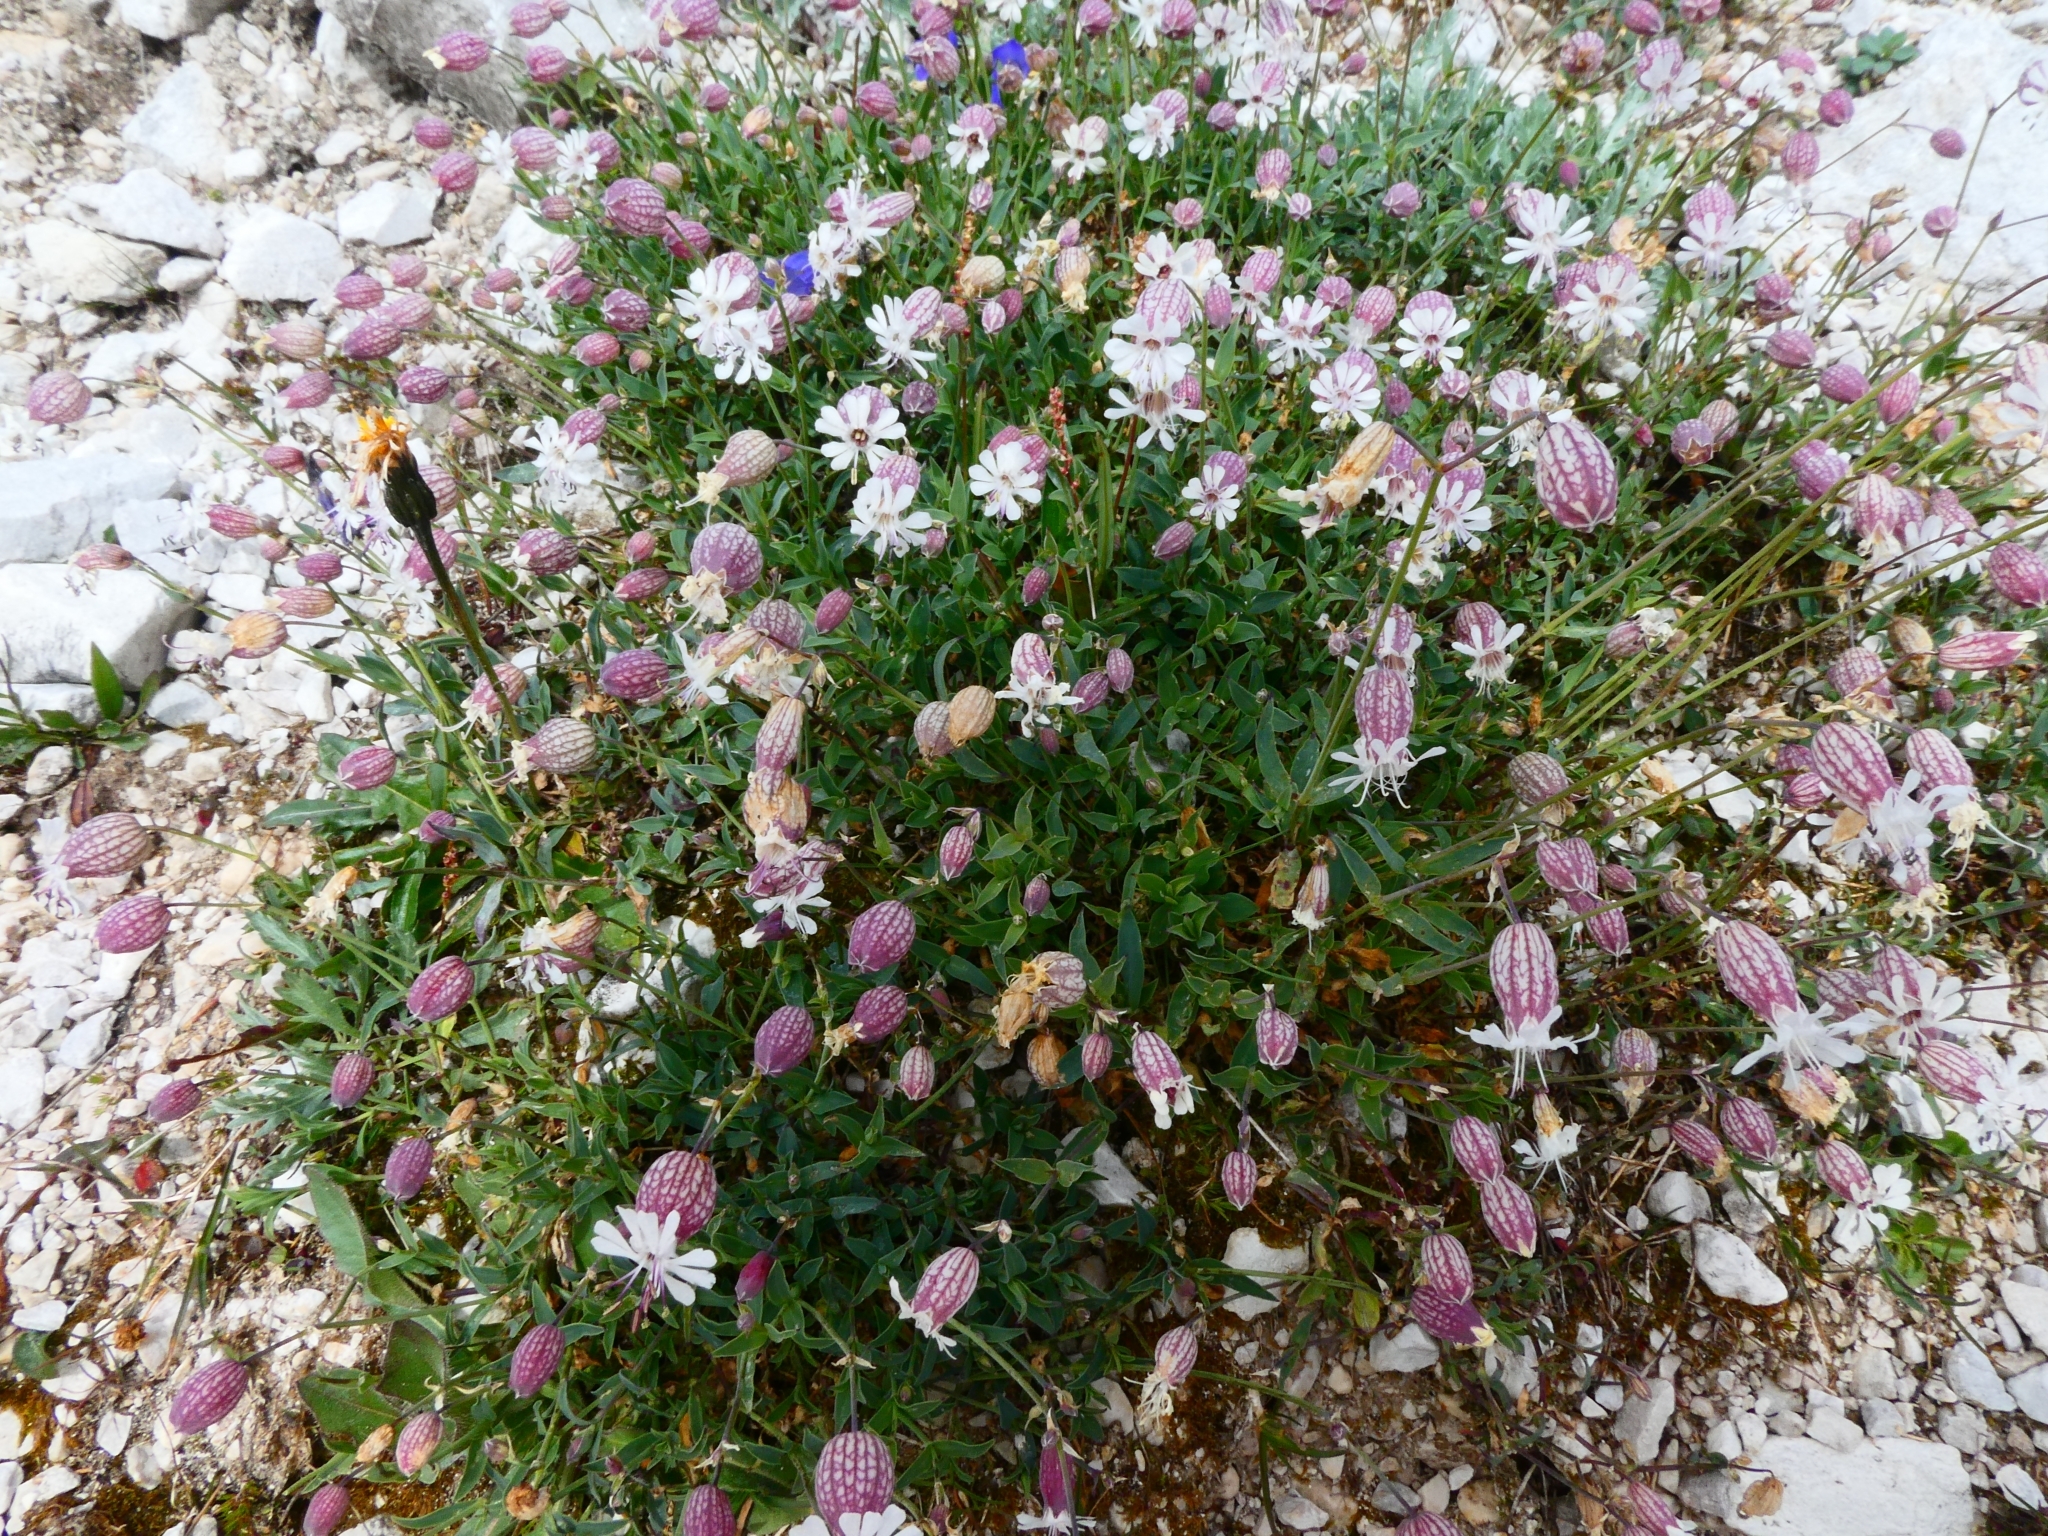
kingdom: Plantae
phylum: Tracheophyta
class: Magnoliopsida
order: Caryophyllales
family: Caryophyllaceae
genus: Silene
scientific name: Silene vulgaris
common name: Bladder campion
